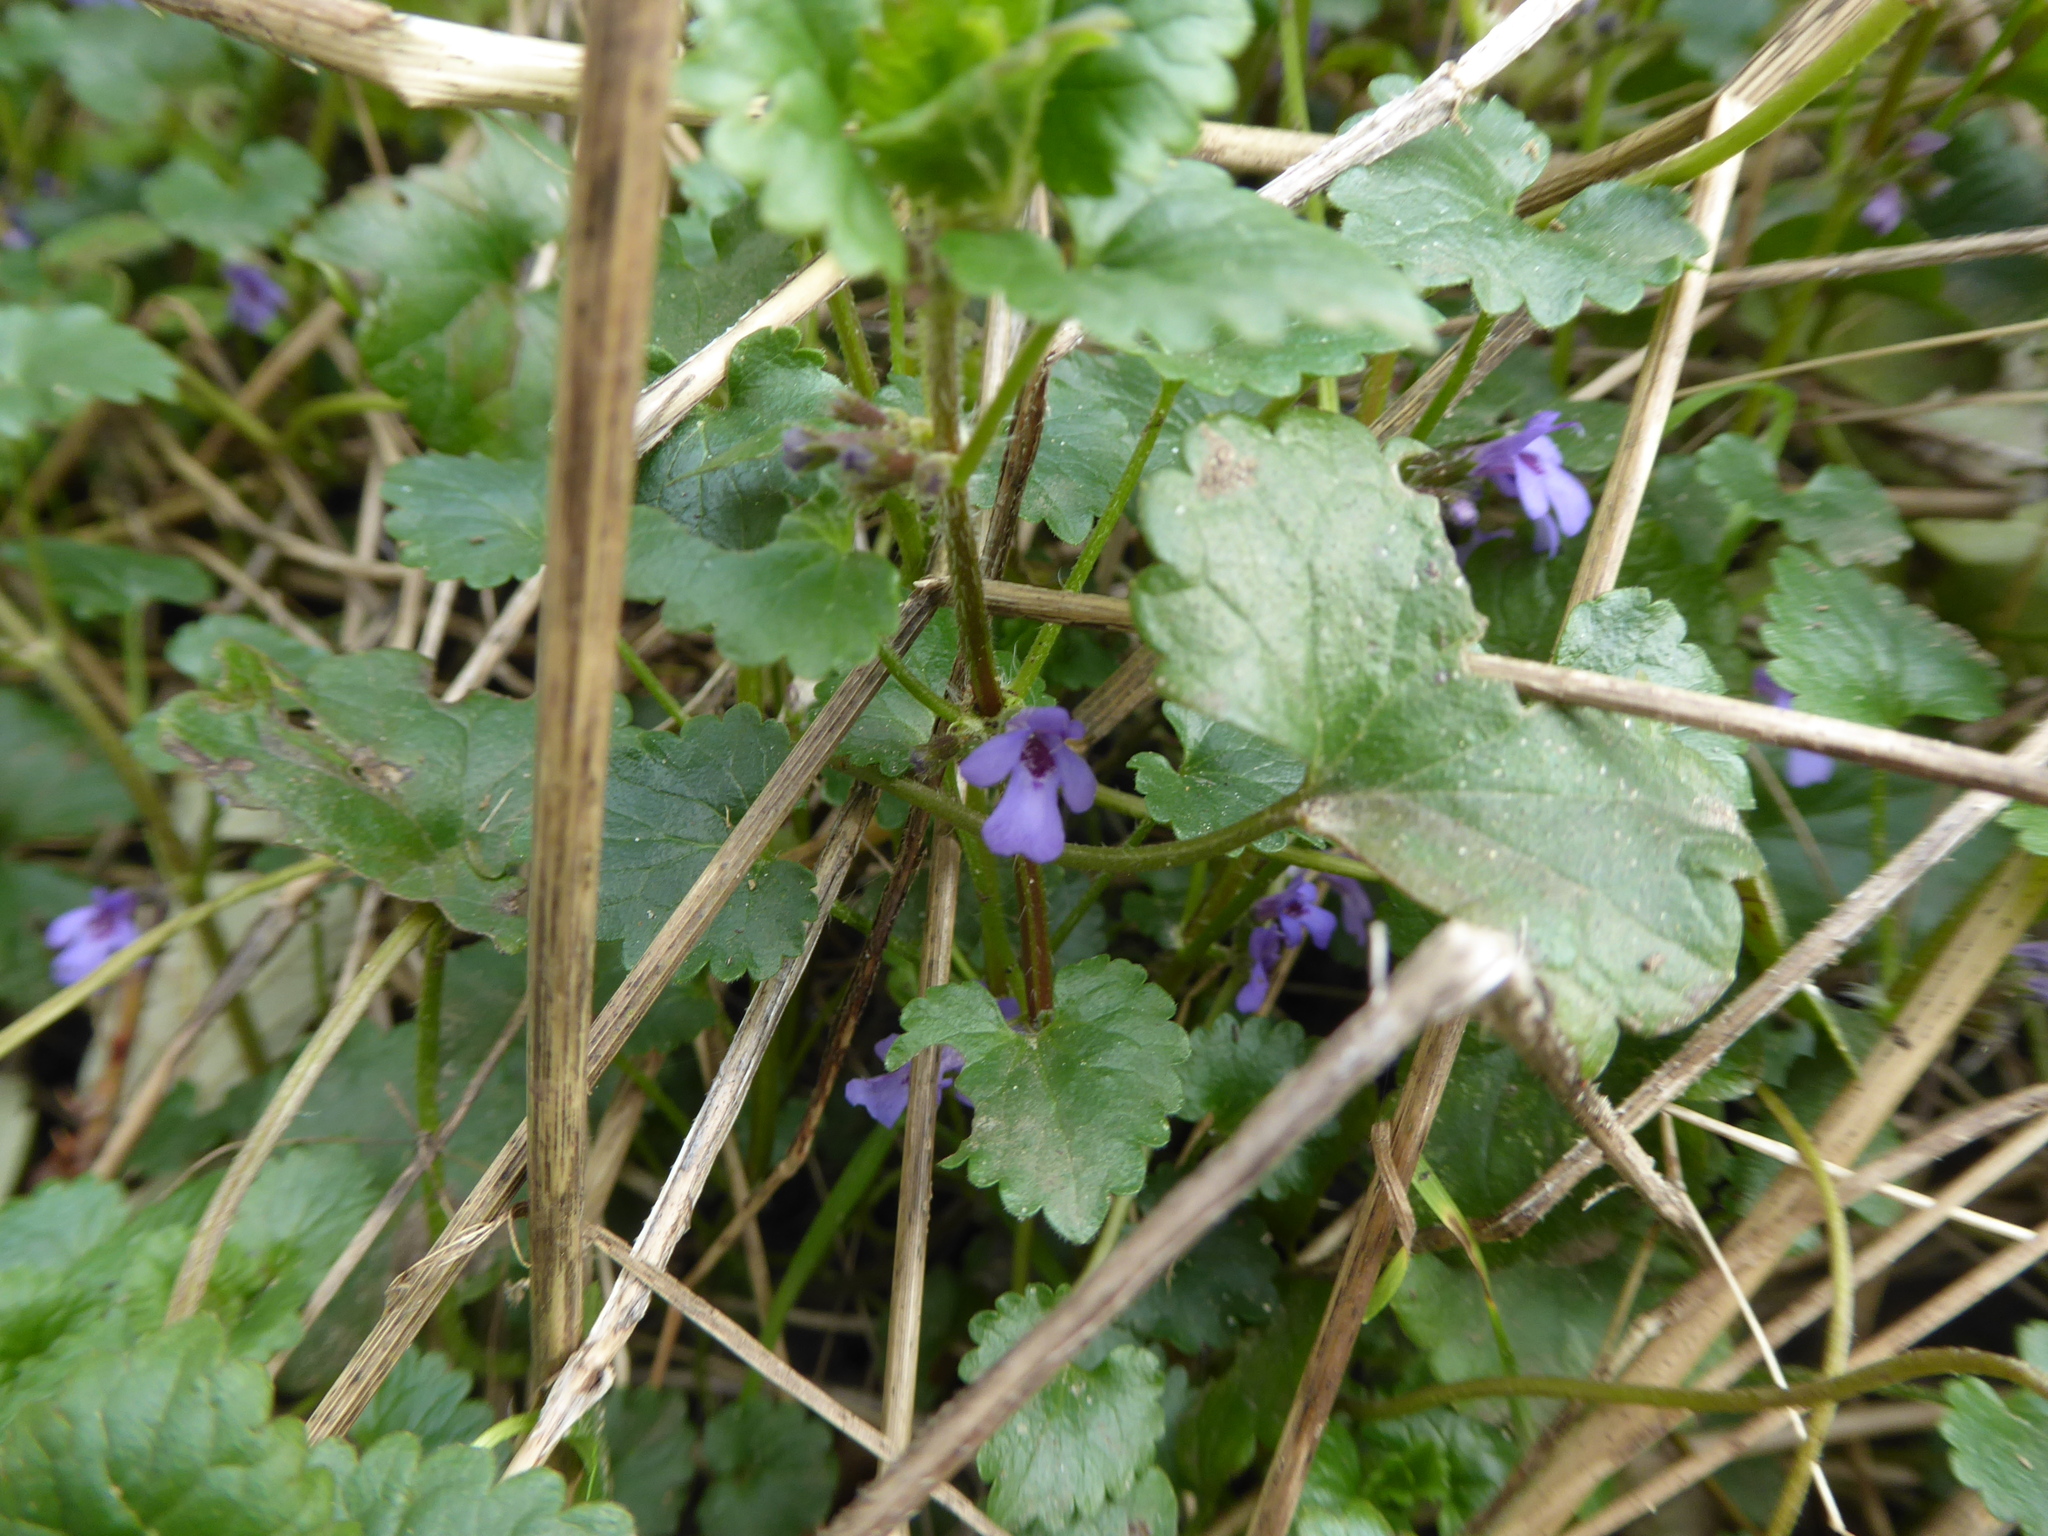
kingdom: Plantae
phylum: Tracheophyta
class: Magnoliopsida
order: Lamiales
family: Lamiaceae
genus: Glechoma
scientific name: Glechoma hederacea
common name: Ground ivy
